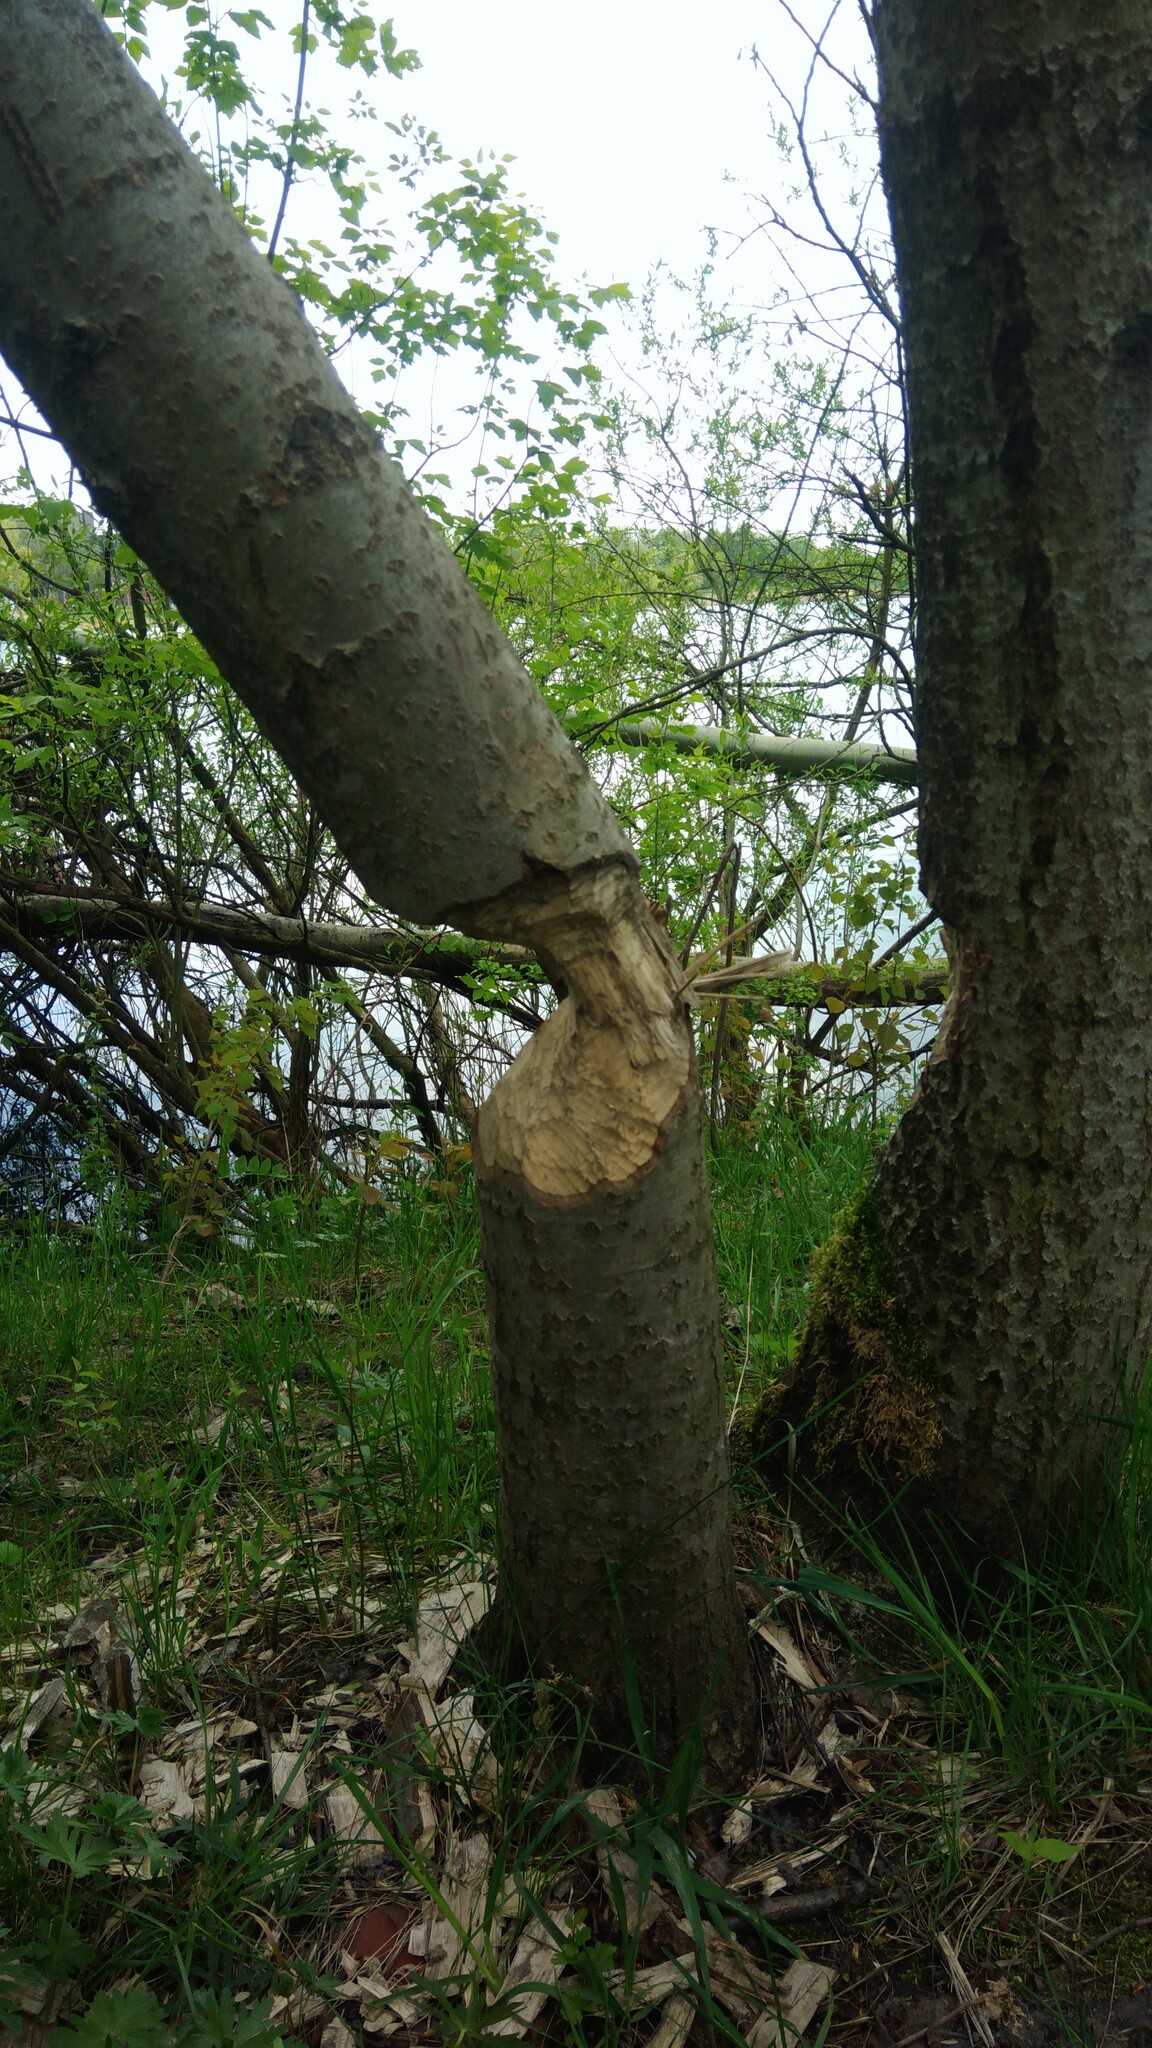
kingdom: Animalia
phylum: Chordata
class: Mammalia
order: Rodentia
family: Castoridae
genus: Castor
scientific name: Castor fiber
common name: Eurasian beaver
